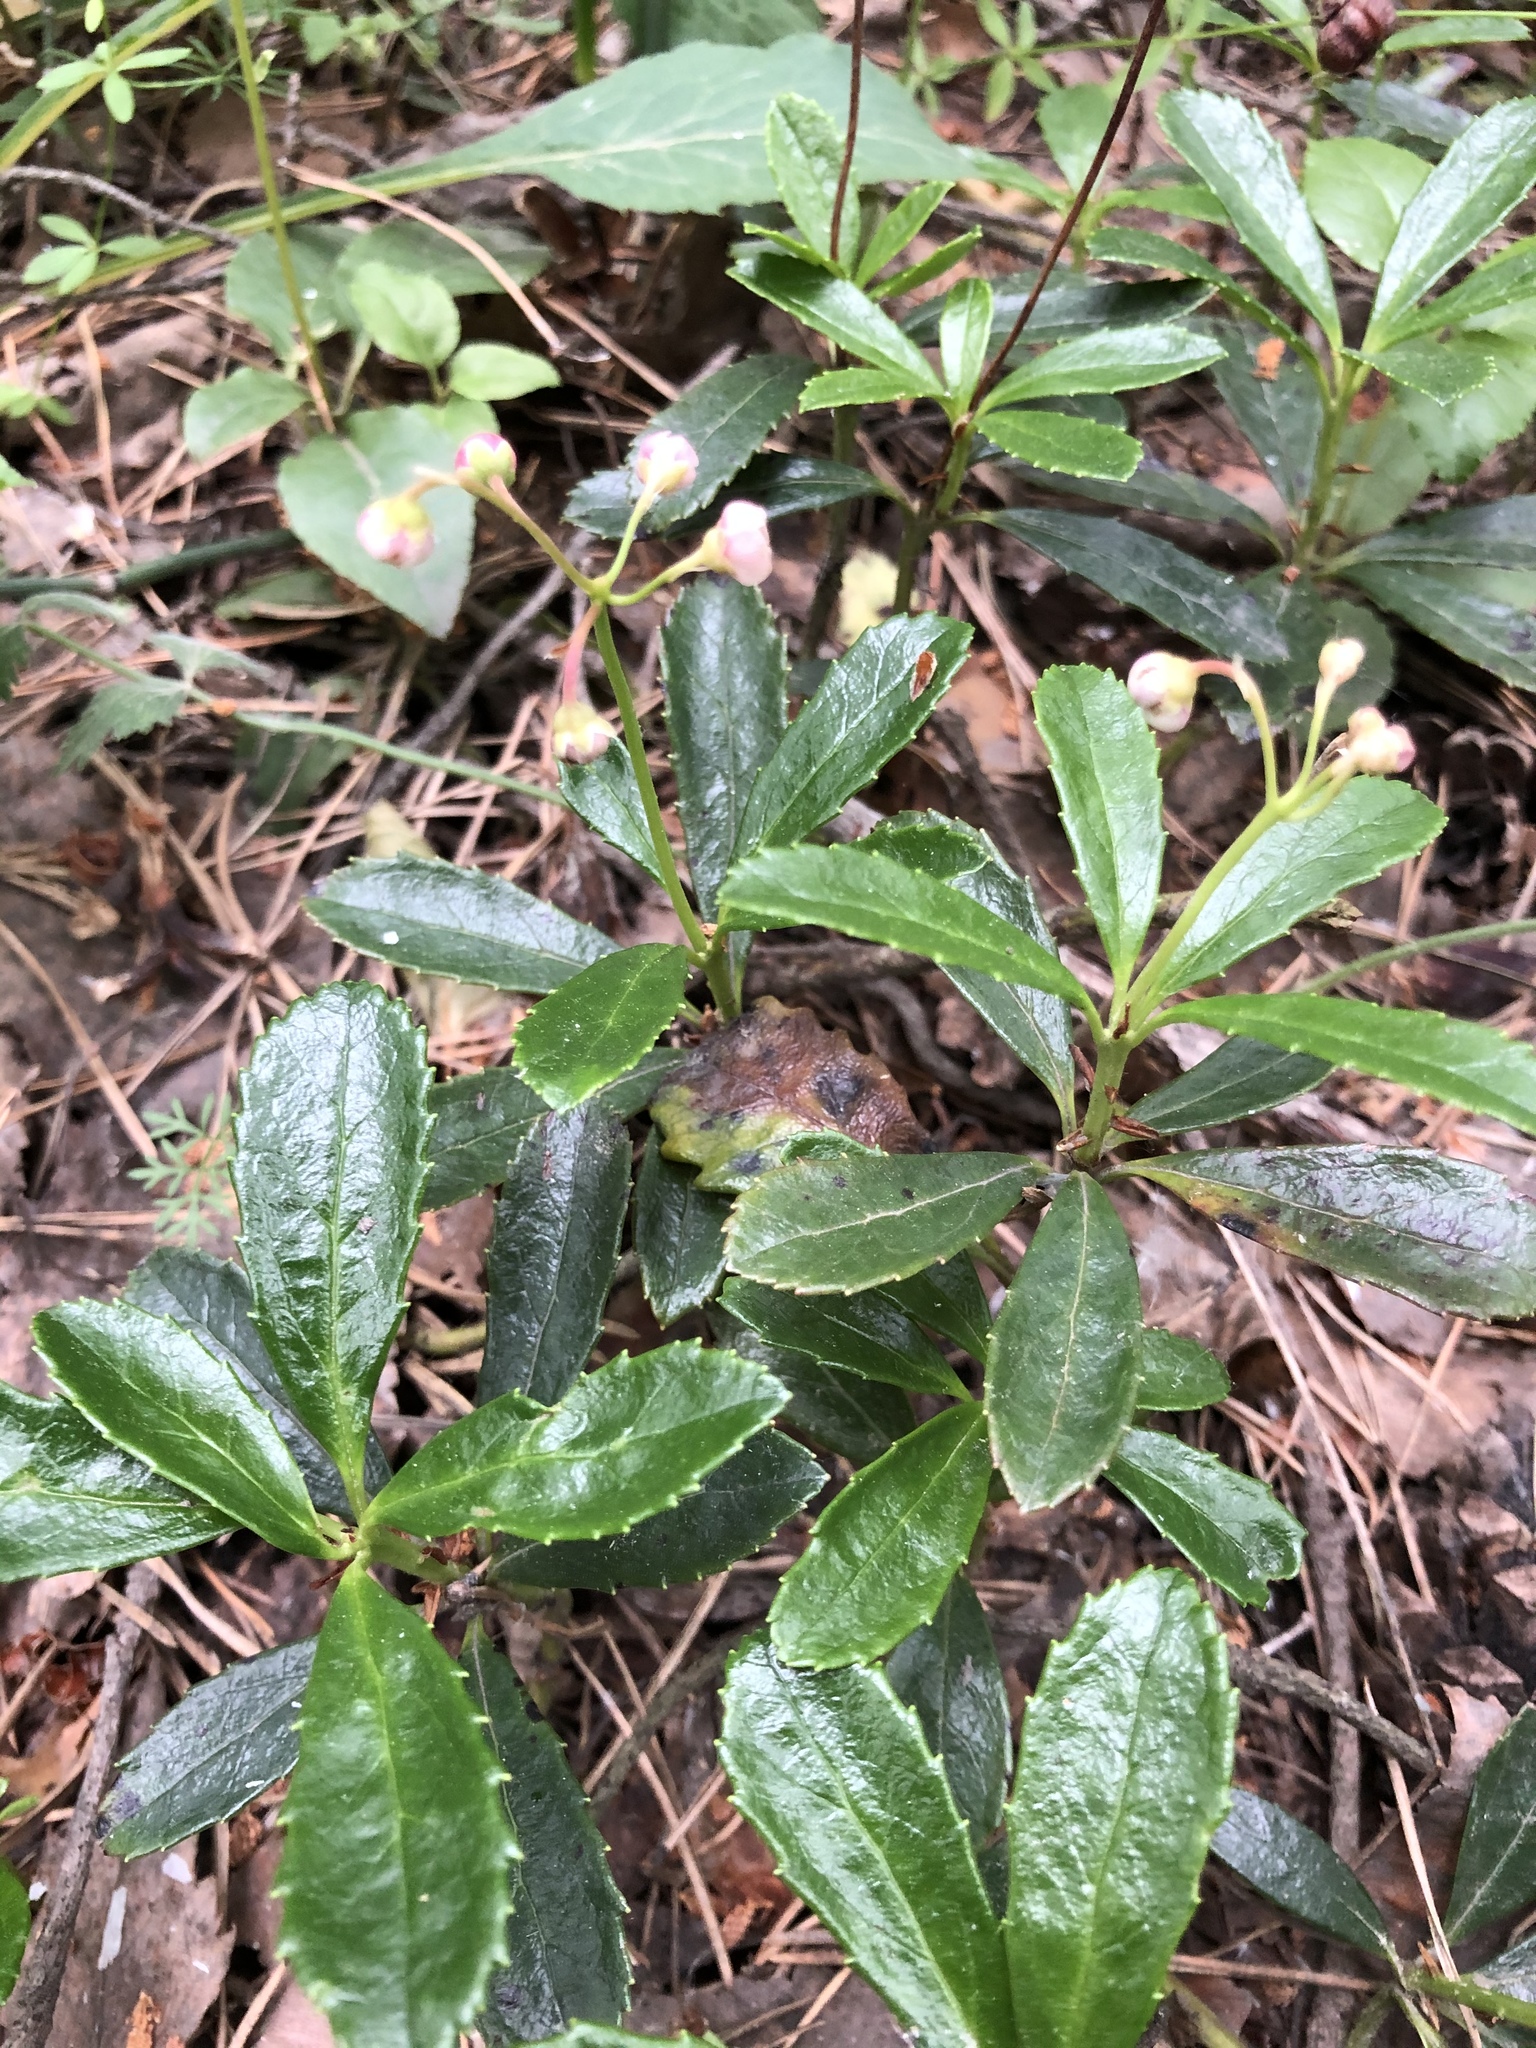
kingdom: Plantae
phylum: Tracheophyta
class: Magnoliopsida
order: Ericales
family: Ericaceae
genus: Chimaphila
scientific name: Chimaphila umbellata
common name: Pipsissewa
